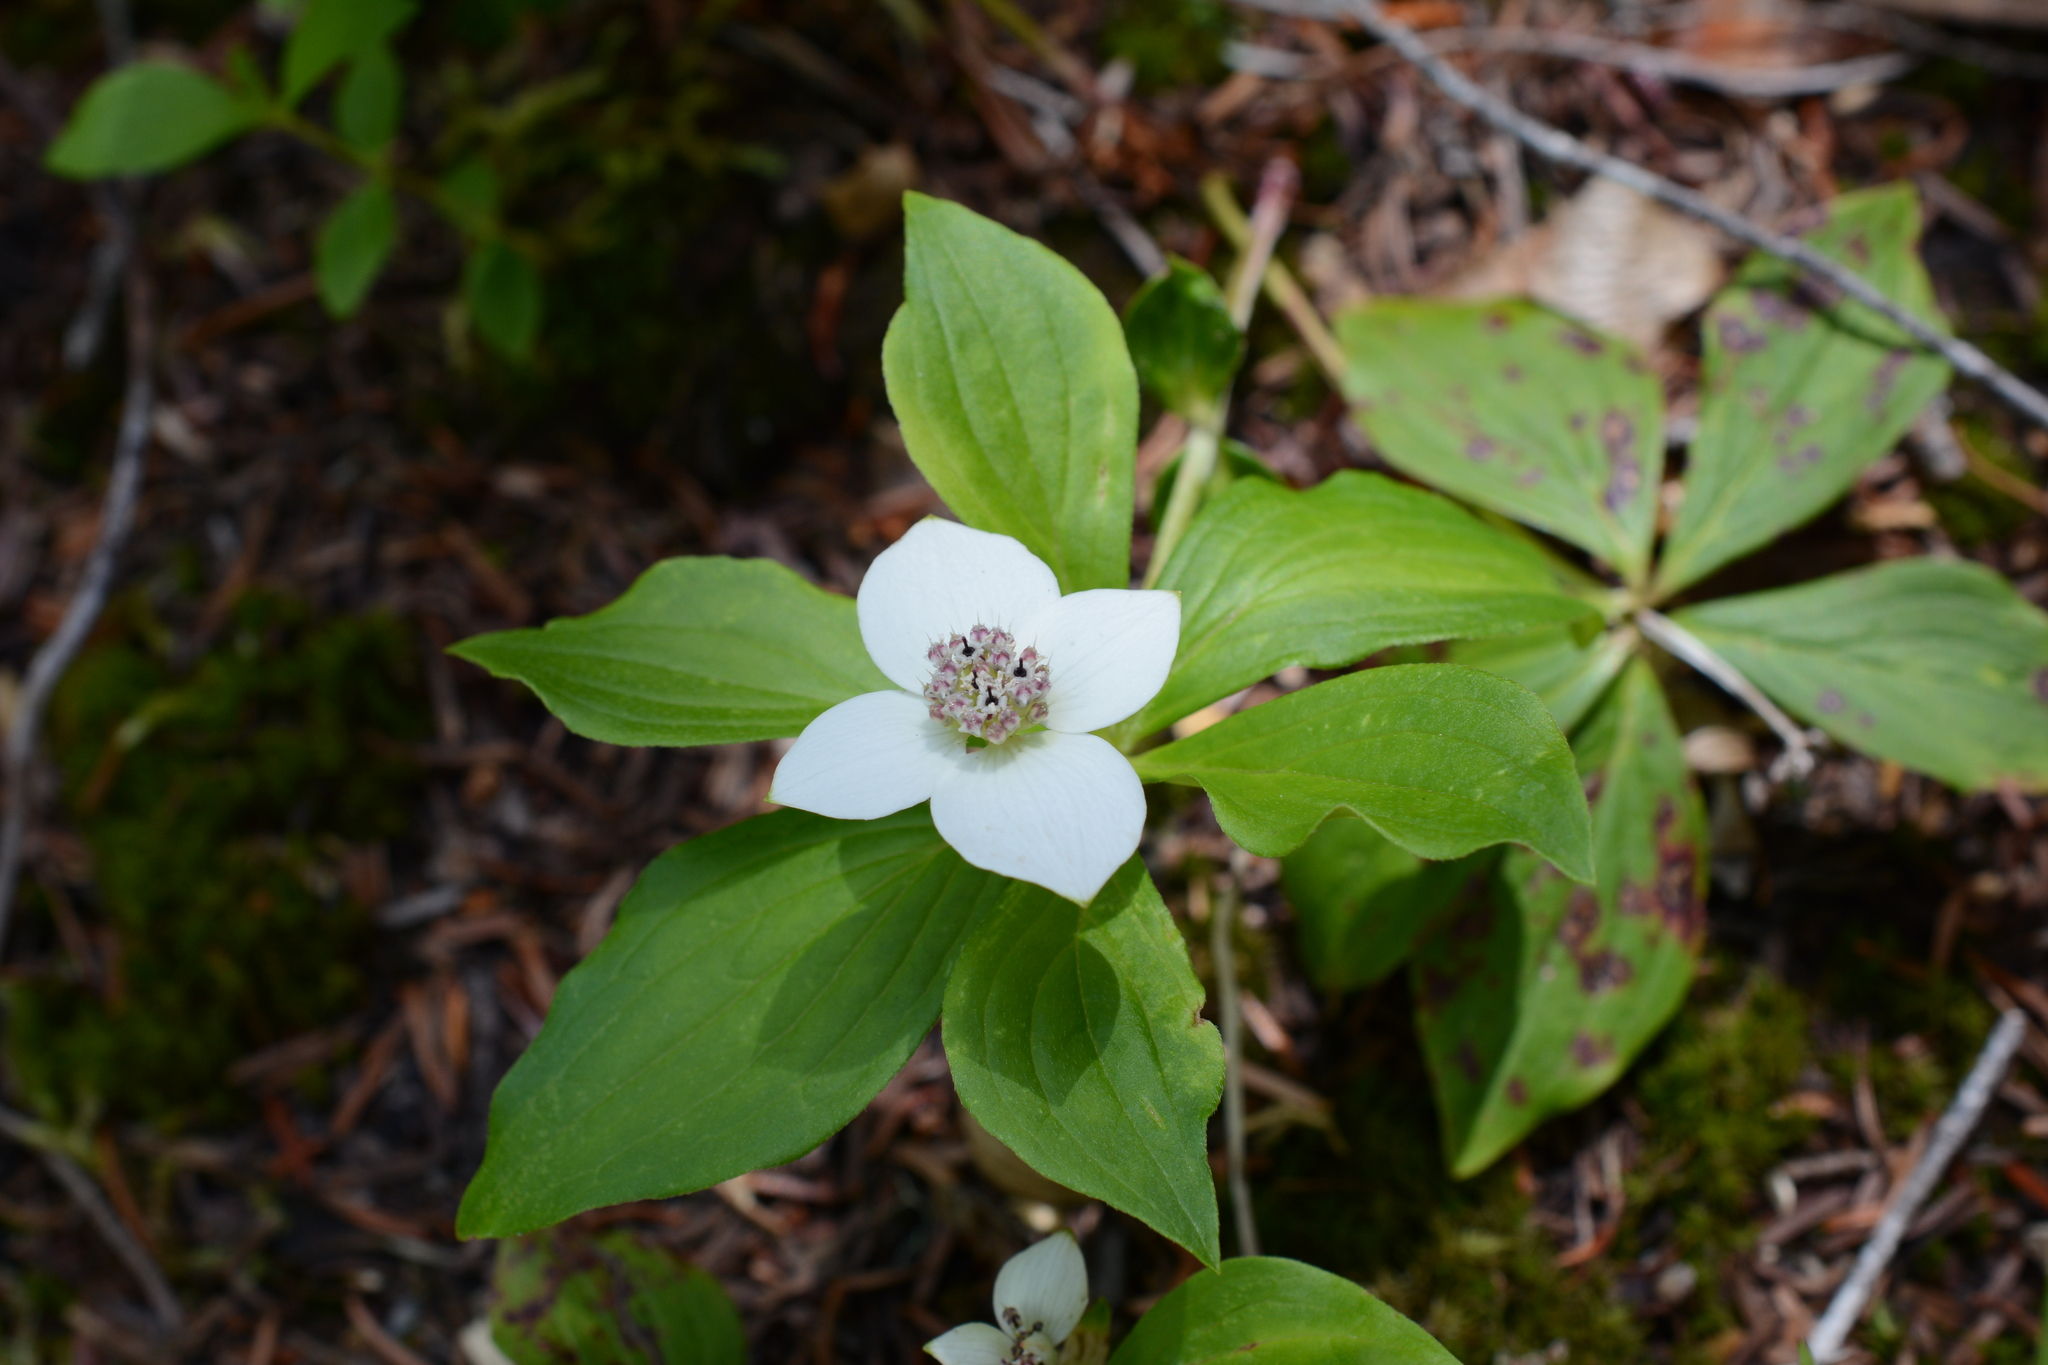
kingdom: Plantae
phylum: Tracheophyta
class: Magnoliopsida
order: Cornales
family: Cornaceae
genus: Cornus
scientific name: Cornus unalaschkensis
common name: Alaska bunchberry
